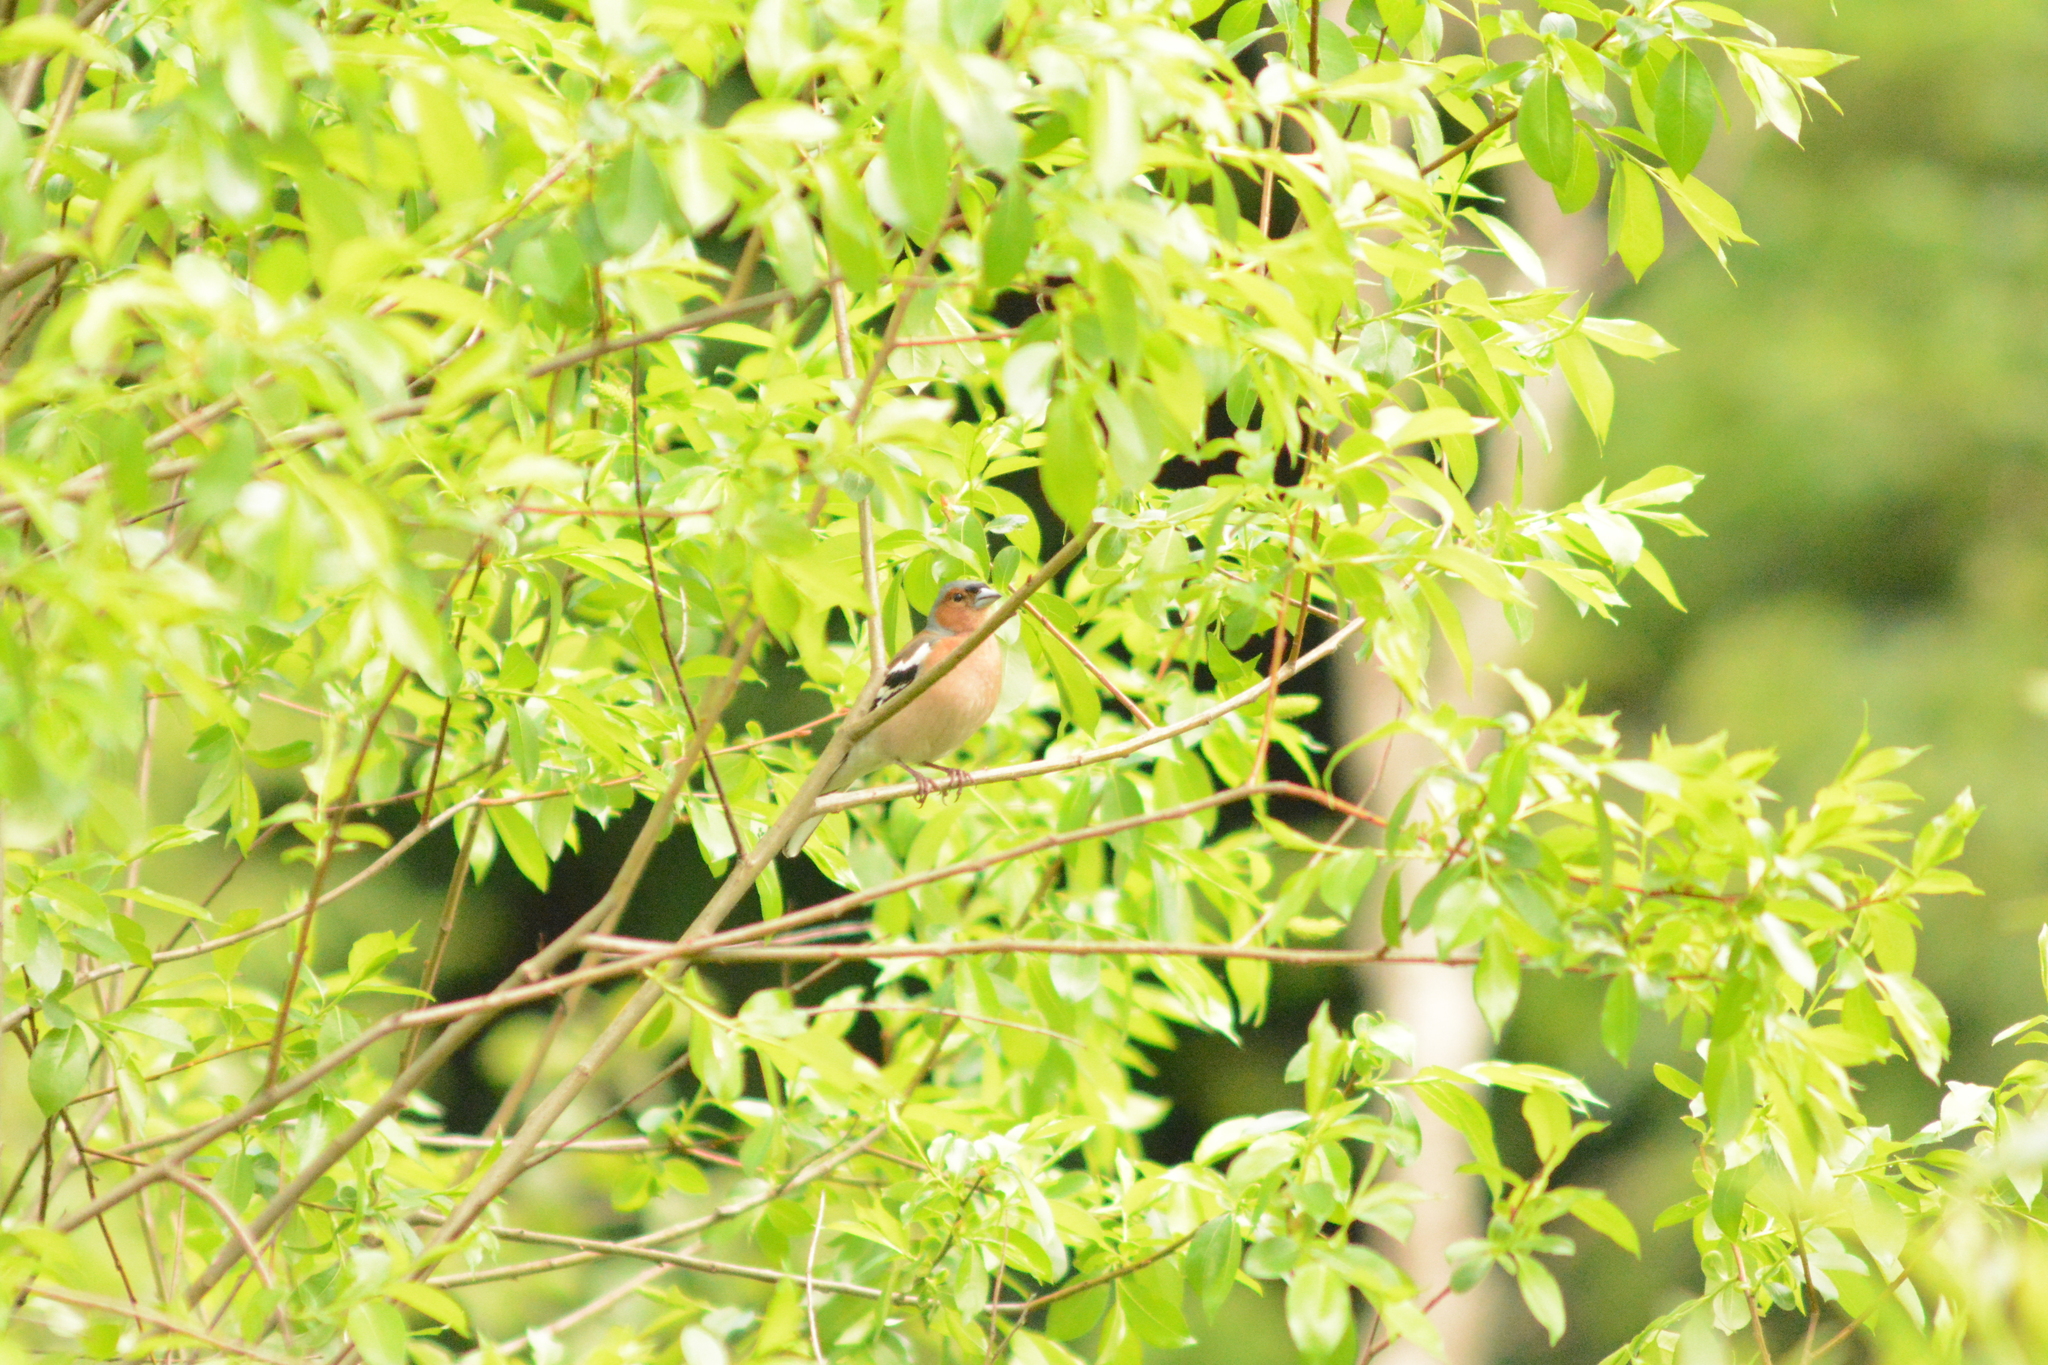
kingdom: Animalia
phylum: Chordata
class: Aves
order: Passeriformes
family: Fringillidae
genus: Fringilla
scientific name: Fringilla coelebs
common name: Common chaffinch
